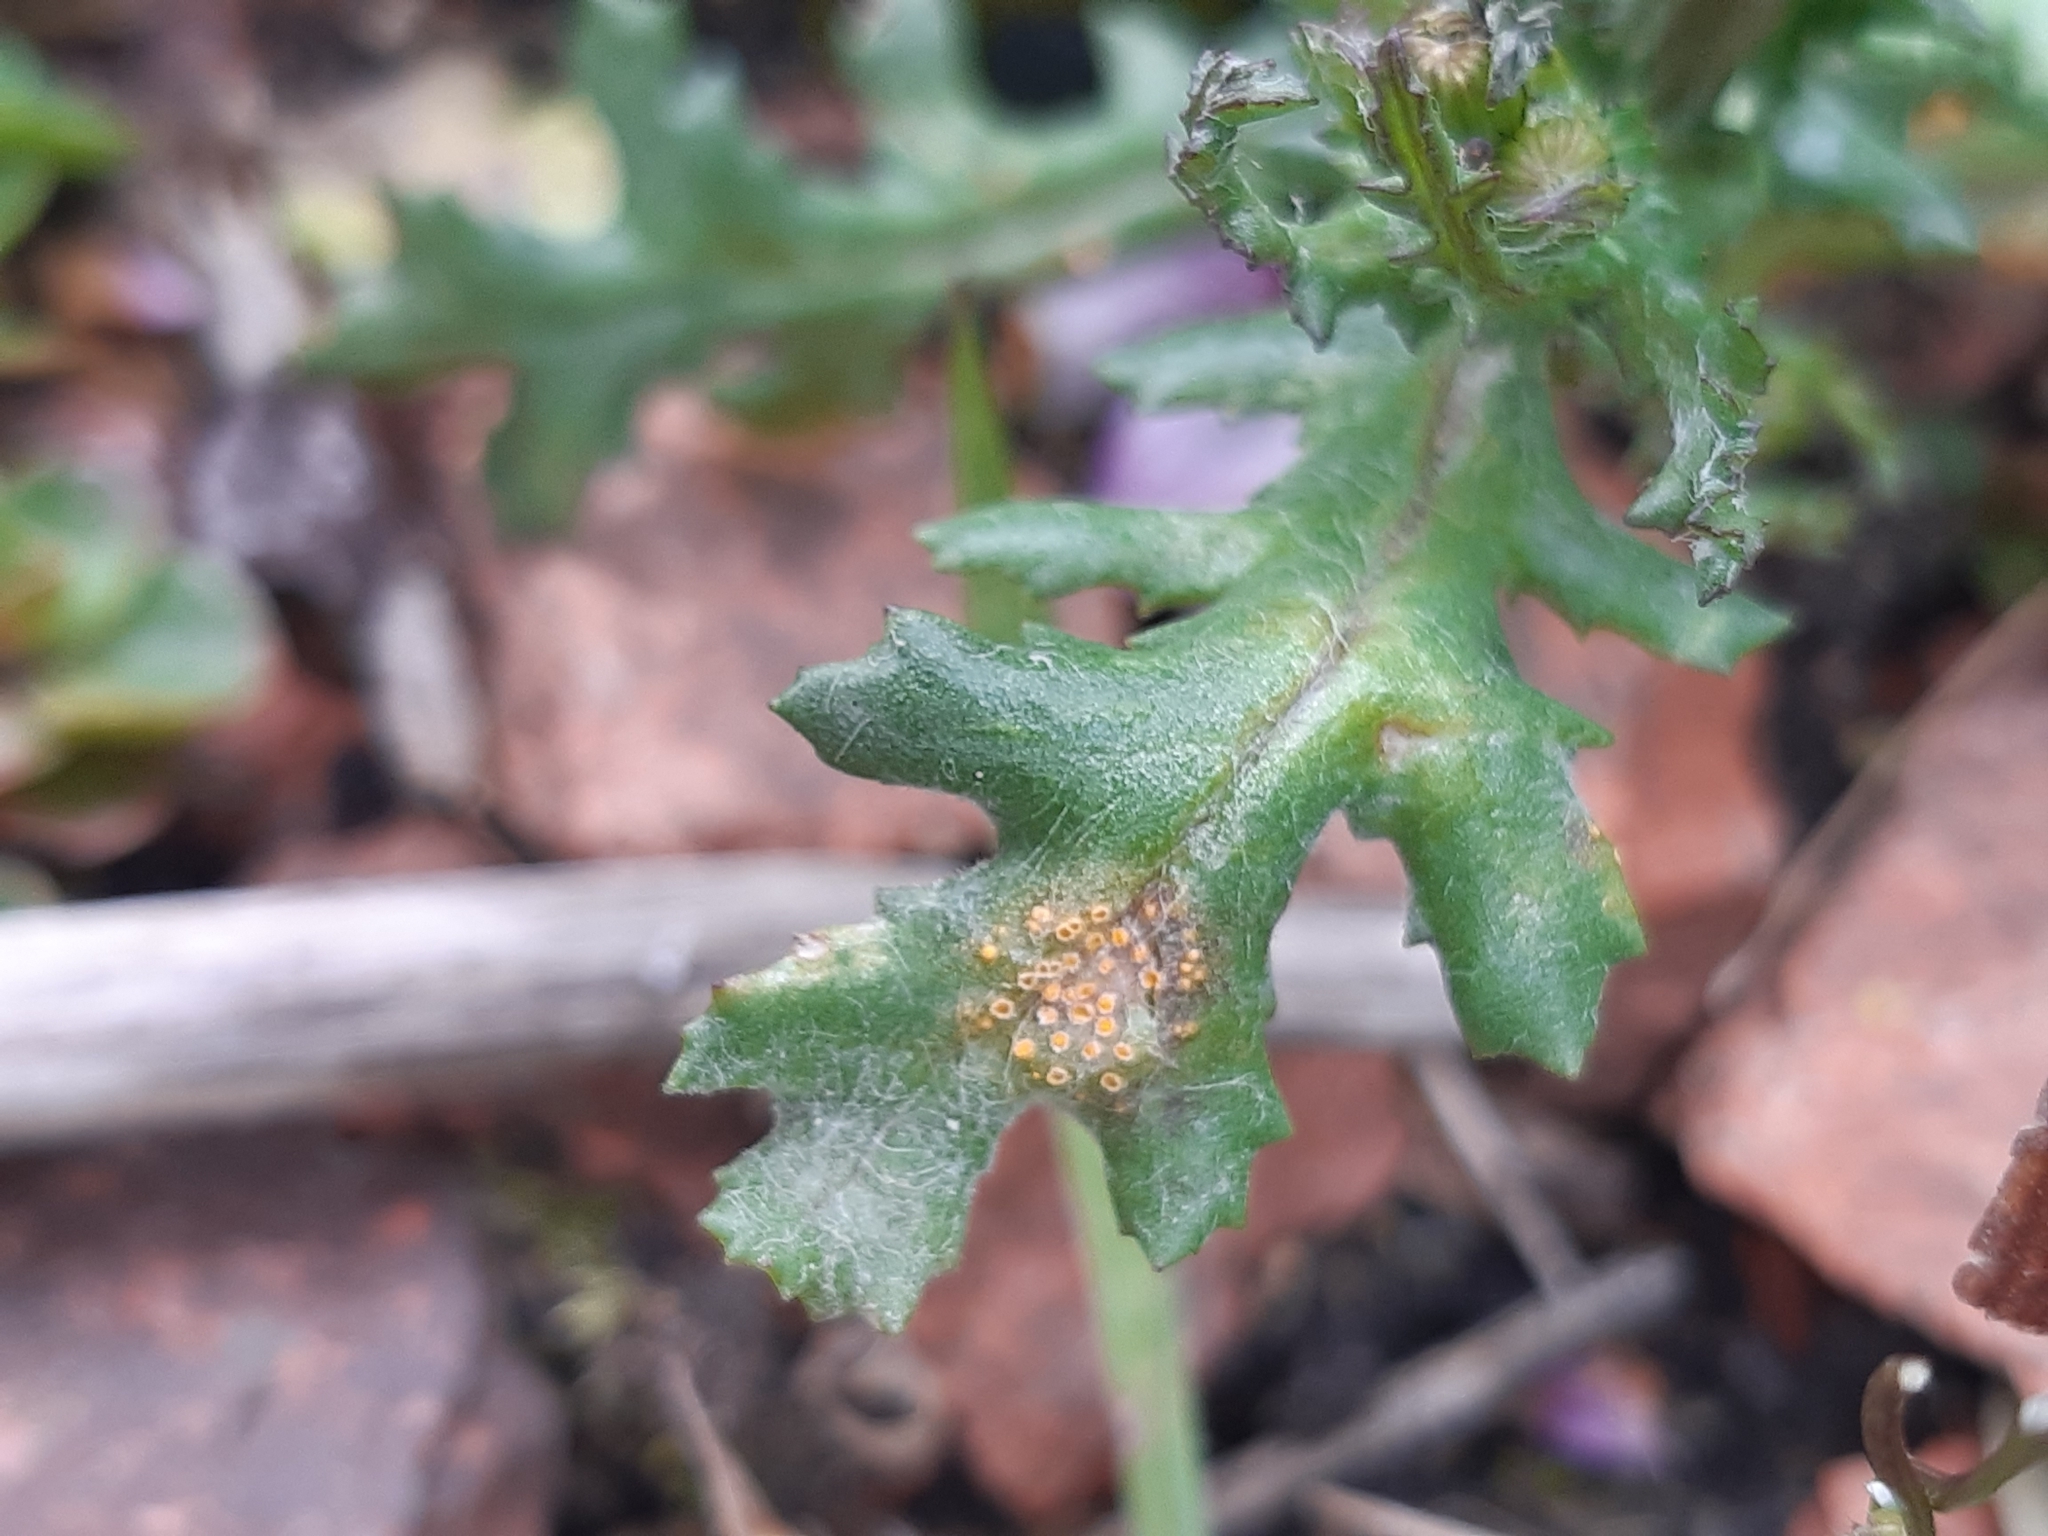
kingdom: Fungi
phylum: Basidiomycota
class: Pucciniomycetes
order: Pucciniales
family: Pucciniaceae
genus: Puccinia
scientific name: Puccinia lagenophorae
